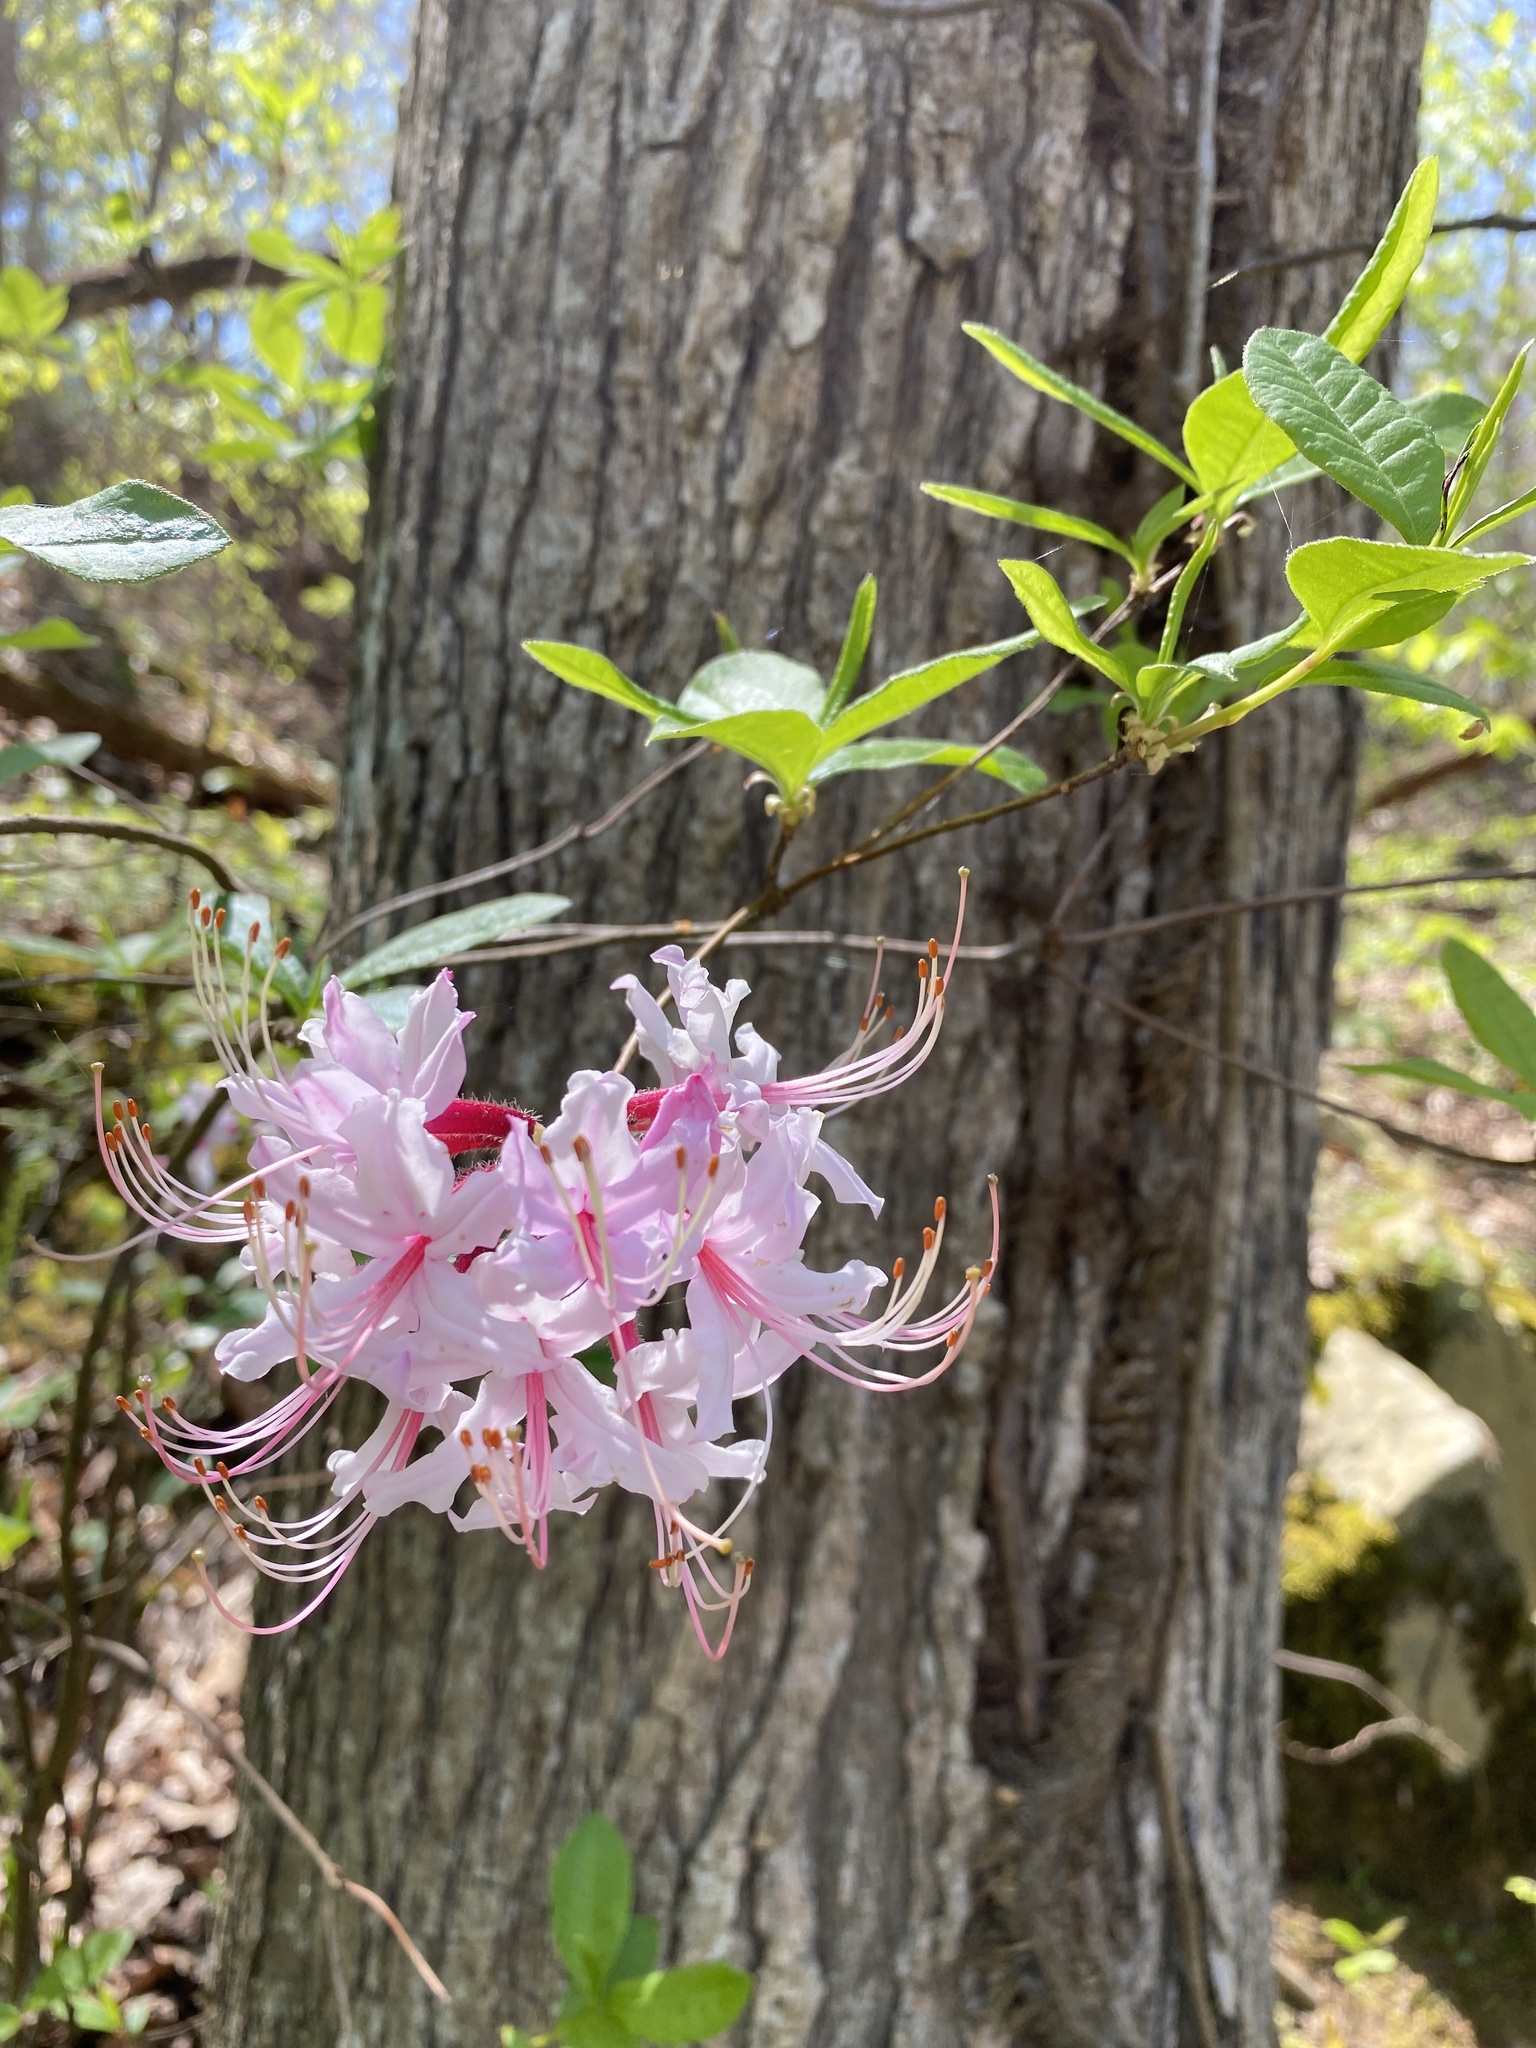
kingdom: Plantae
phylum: Tracheophyta
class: Magnoliopsida
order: Ericales
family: Ericaceae
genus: Rhododendron
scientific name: Rhododendron periclymenoides
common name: Election-pink
